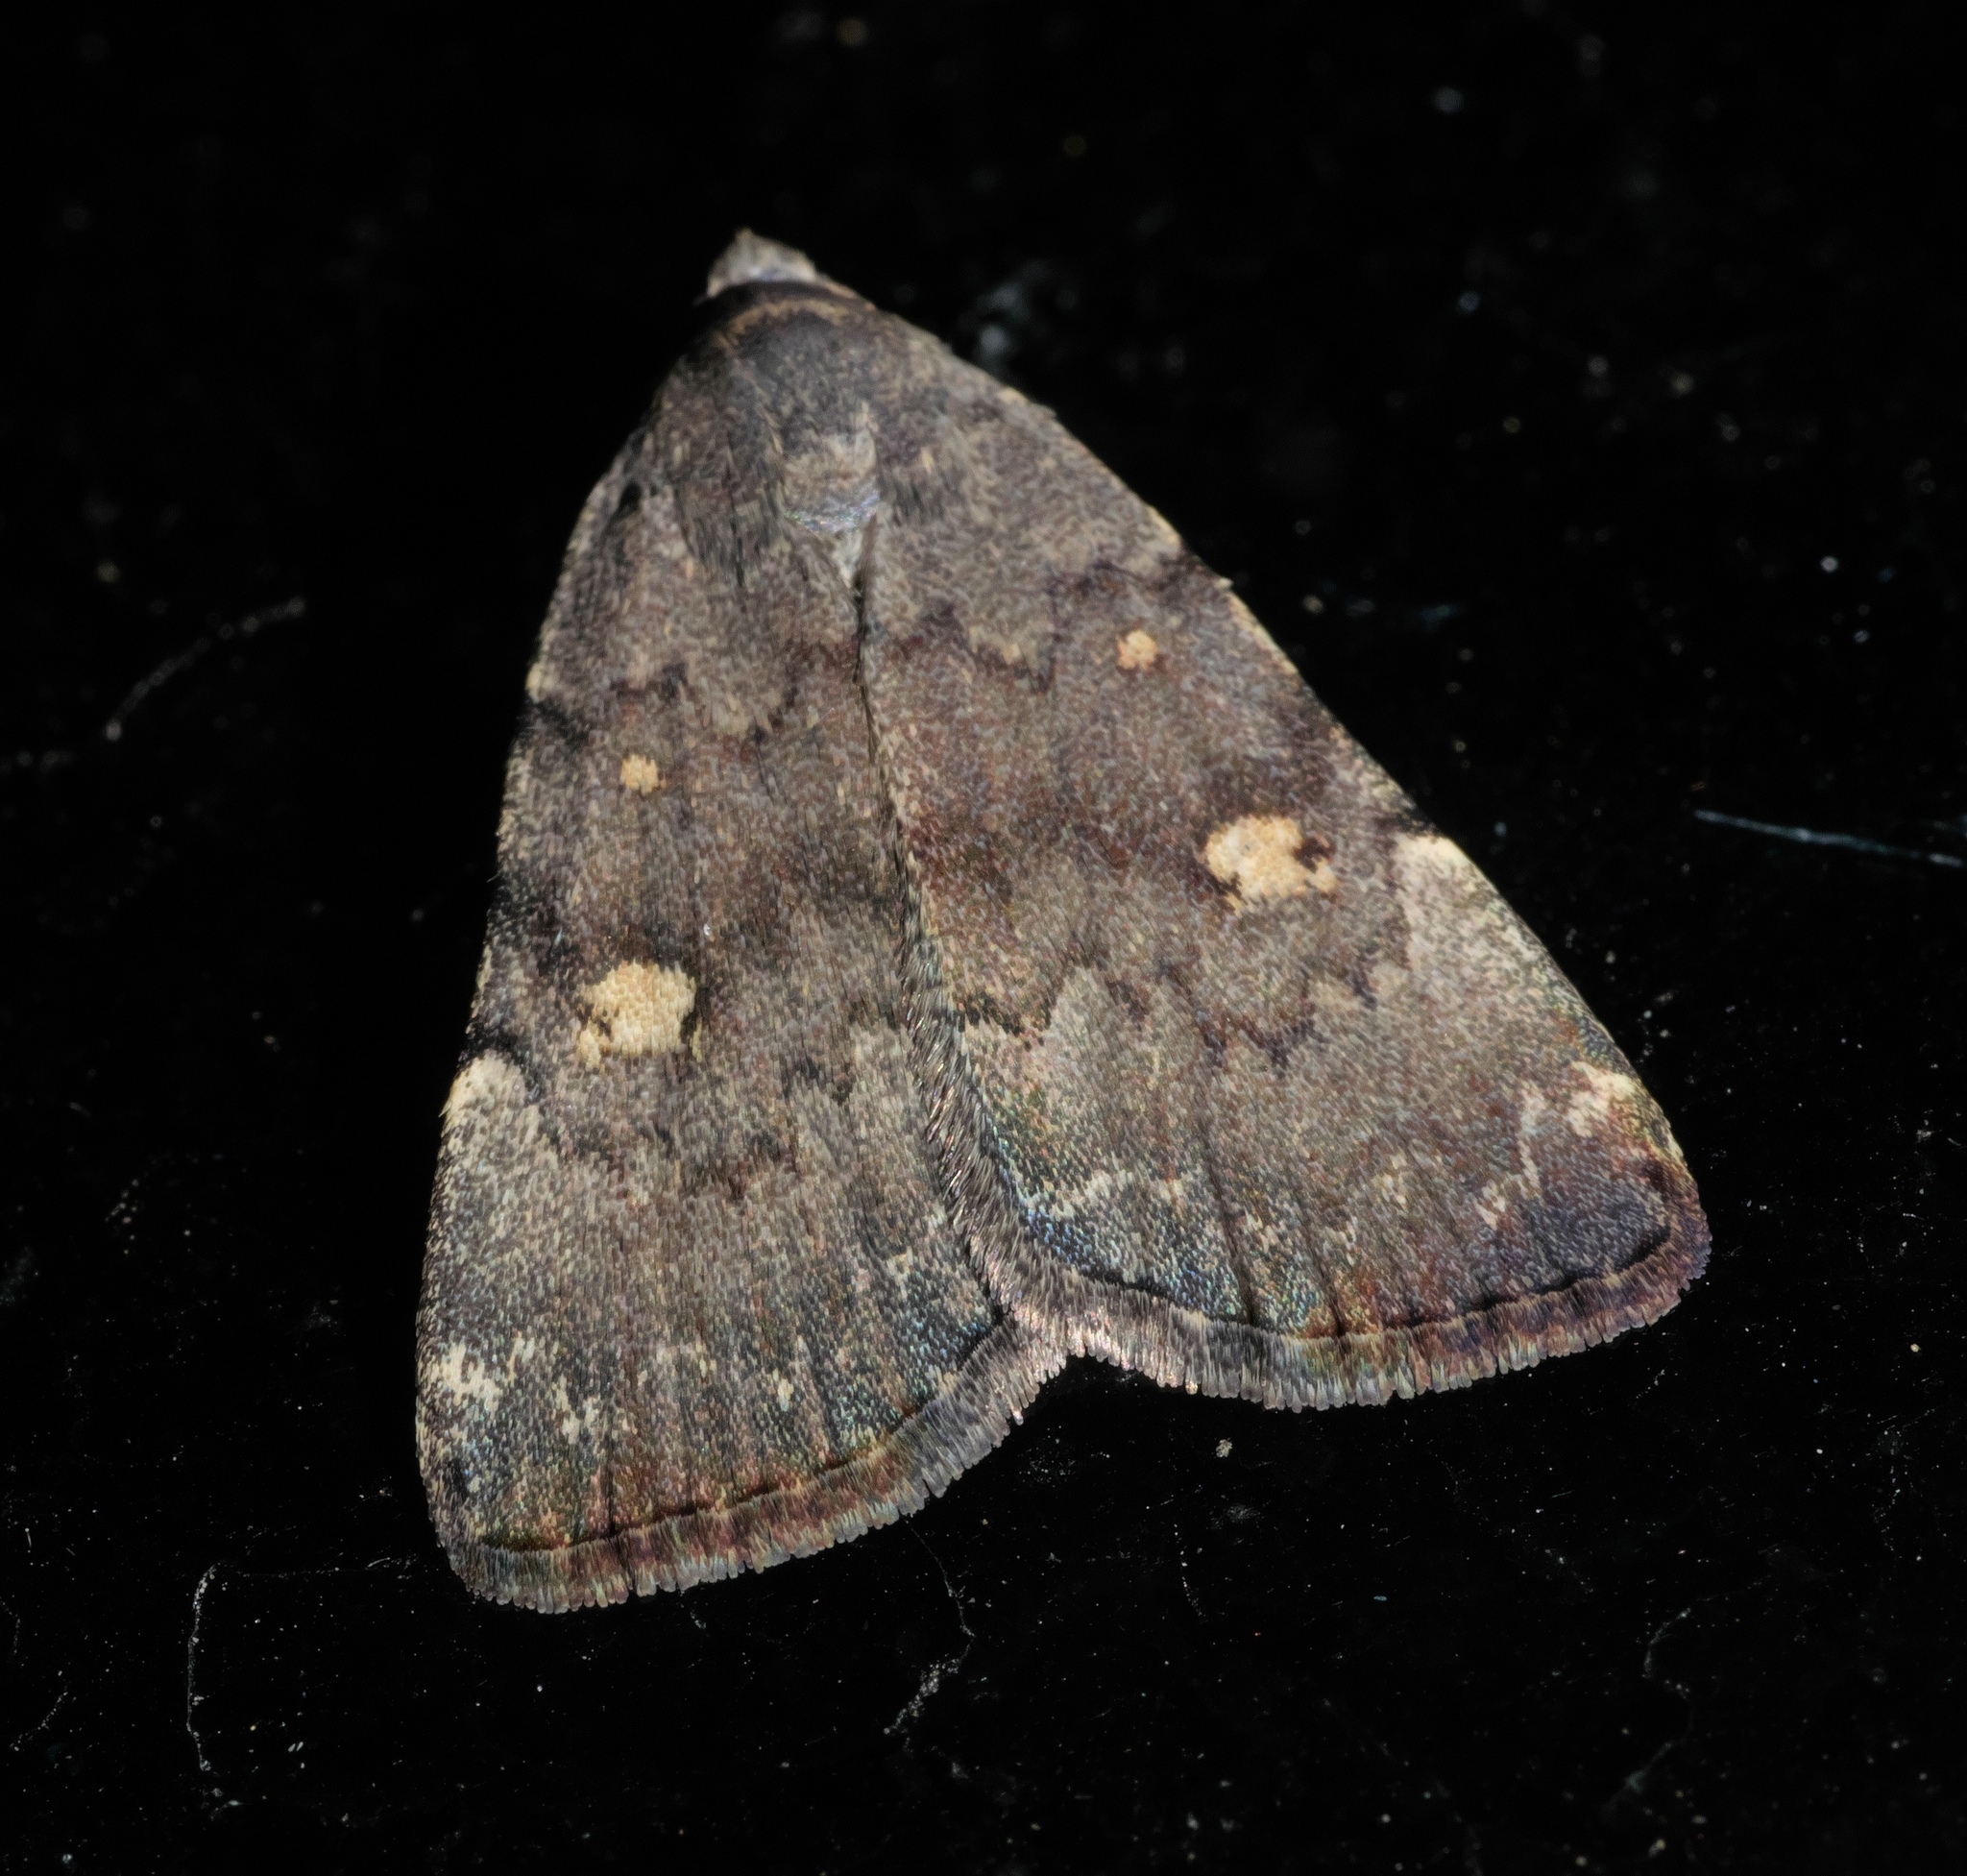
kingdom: Animalia
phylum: Arthropoda
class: Insecta
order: Lepidoptera
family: Erebidae
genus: Idia
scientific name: Idia aemula
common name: Common idia moth
